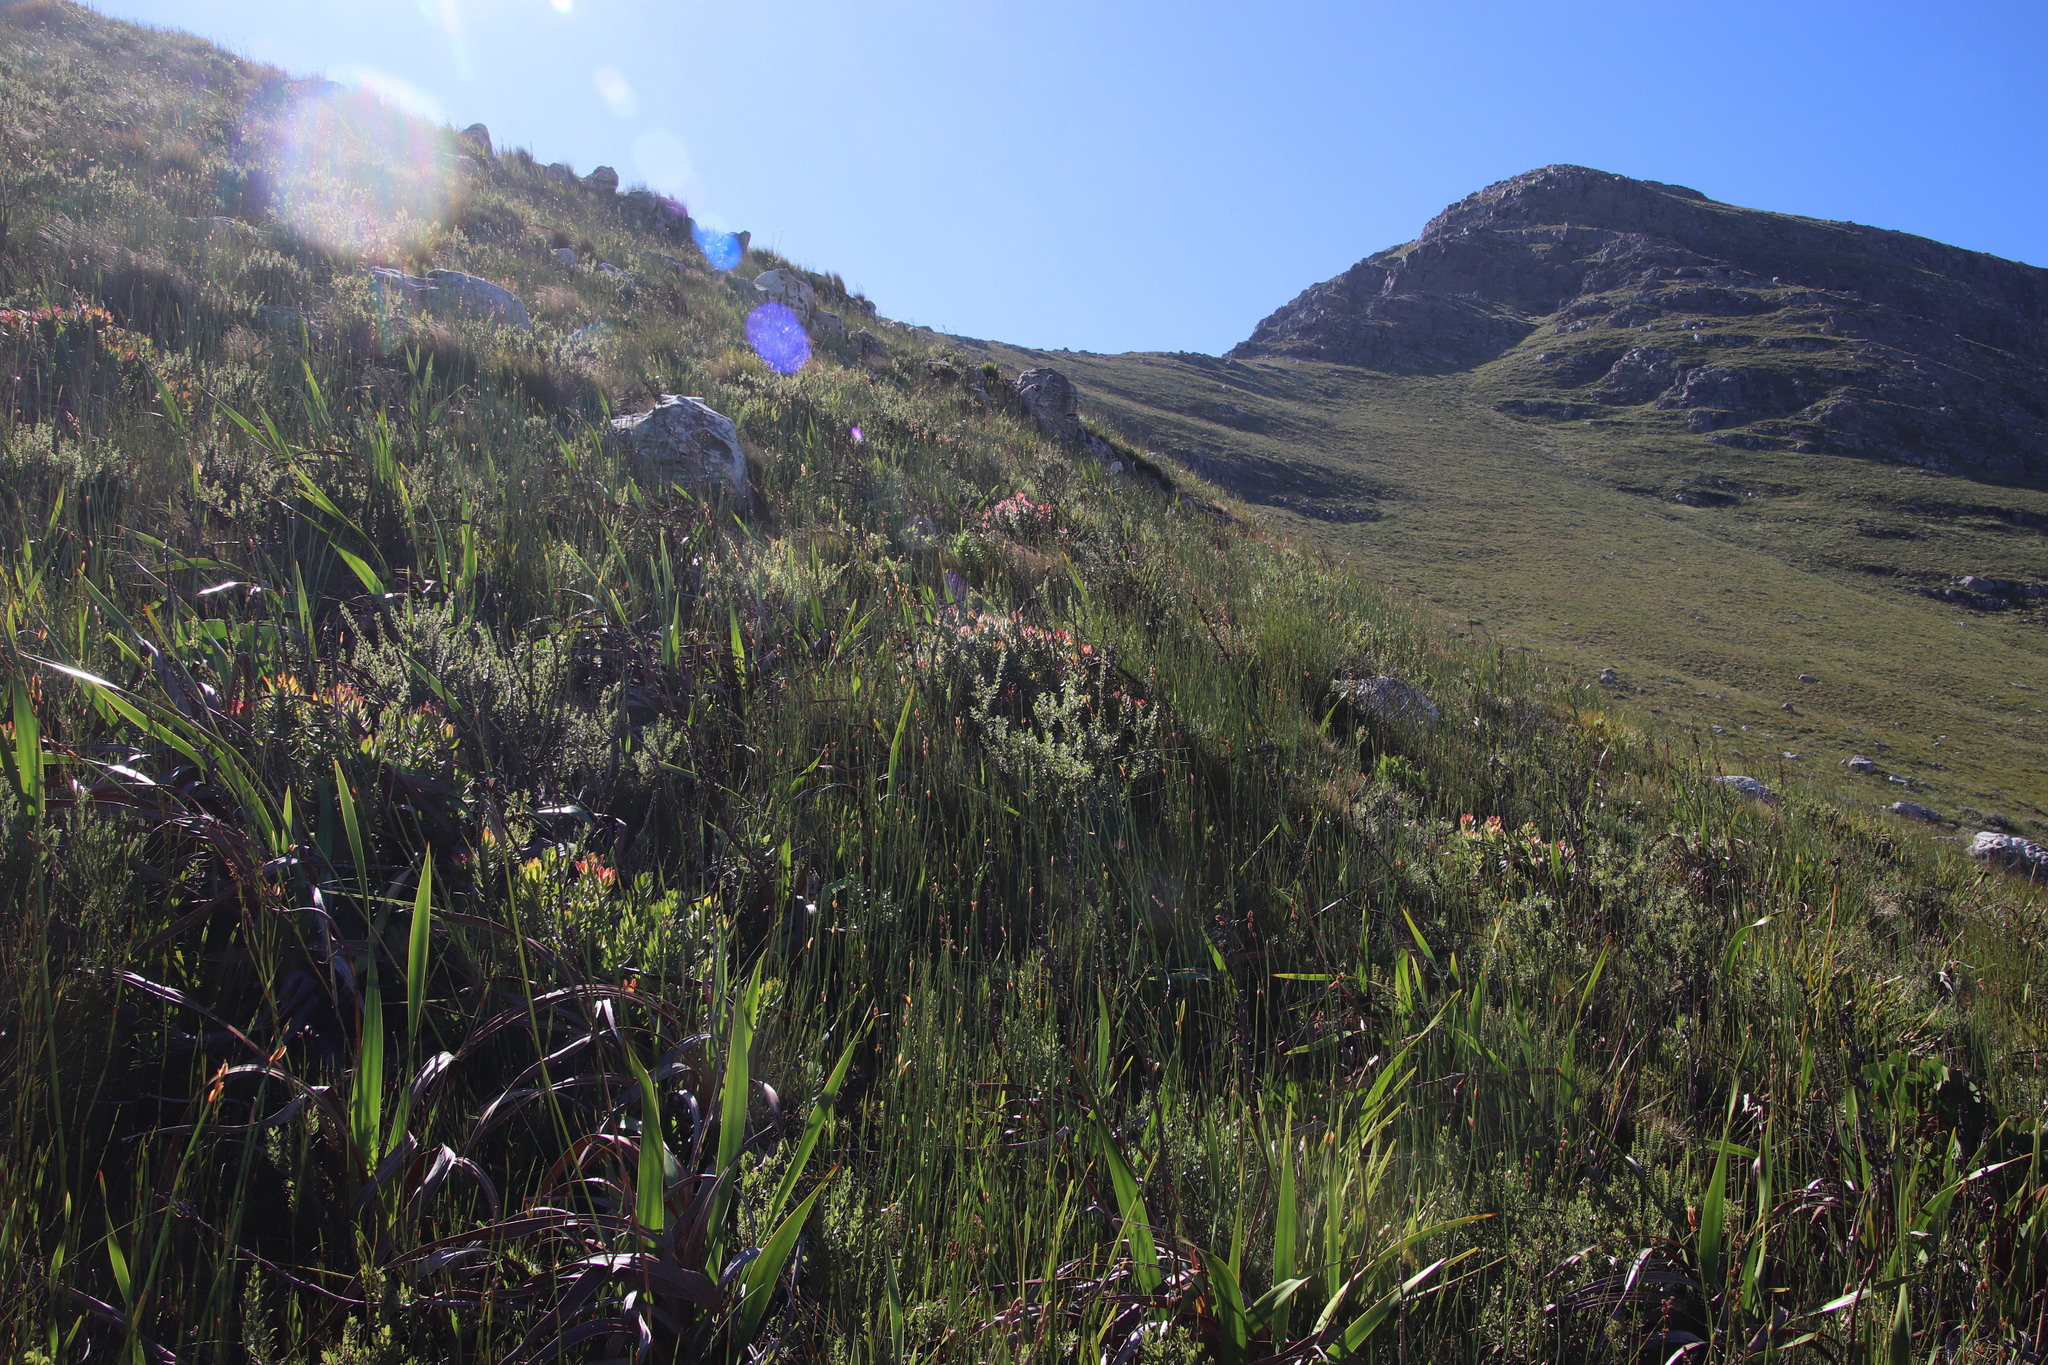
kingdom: Plantae
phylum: Tracheophyta
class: Magnoliopsida
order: Proteales
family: Proteaceae
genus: Mimetes
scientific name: Mimetes cucullatus
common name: Common pagoda
